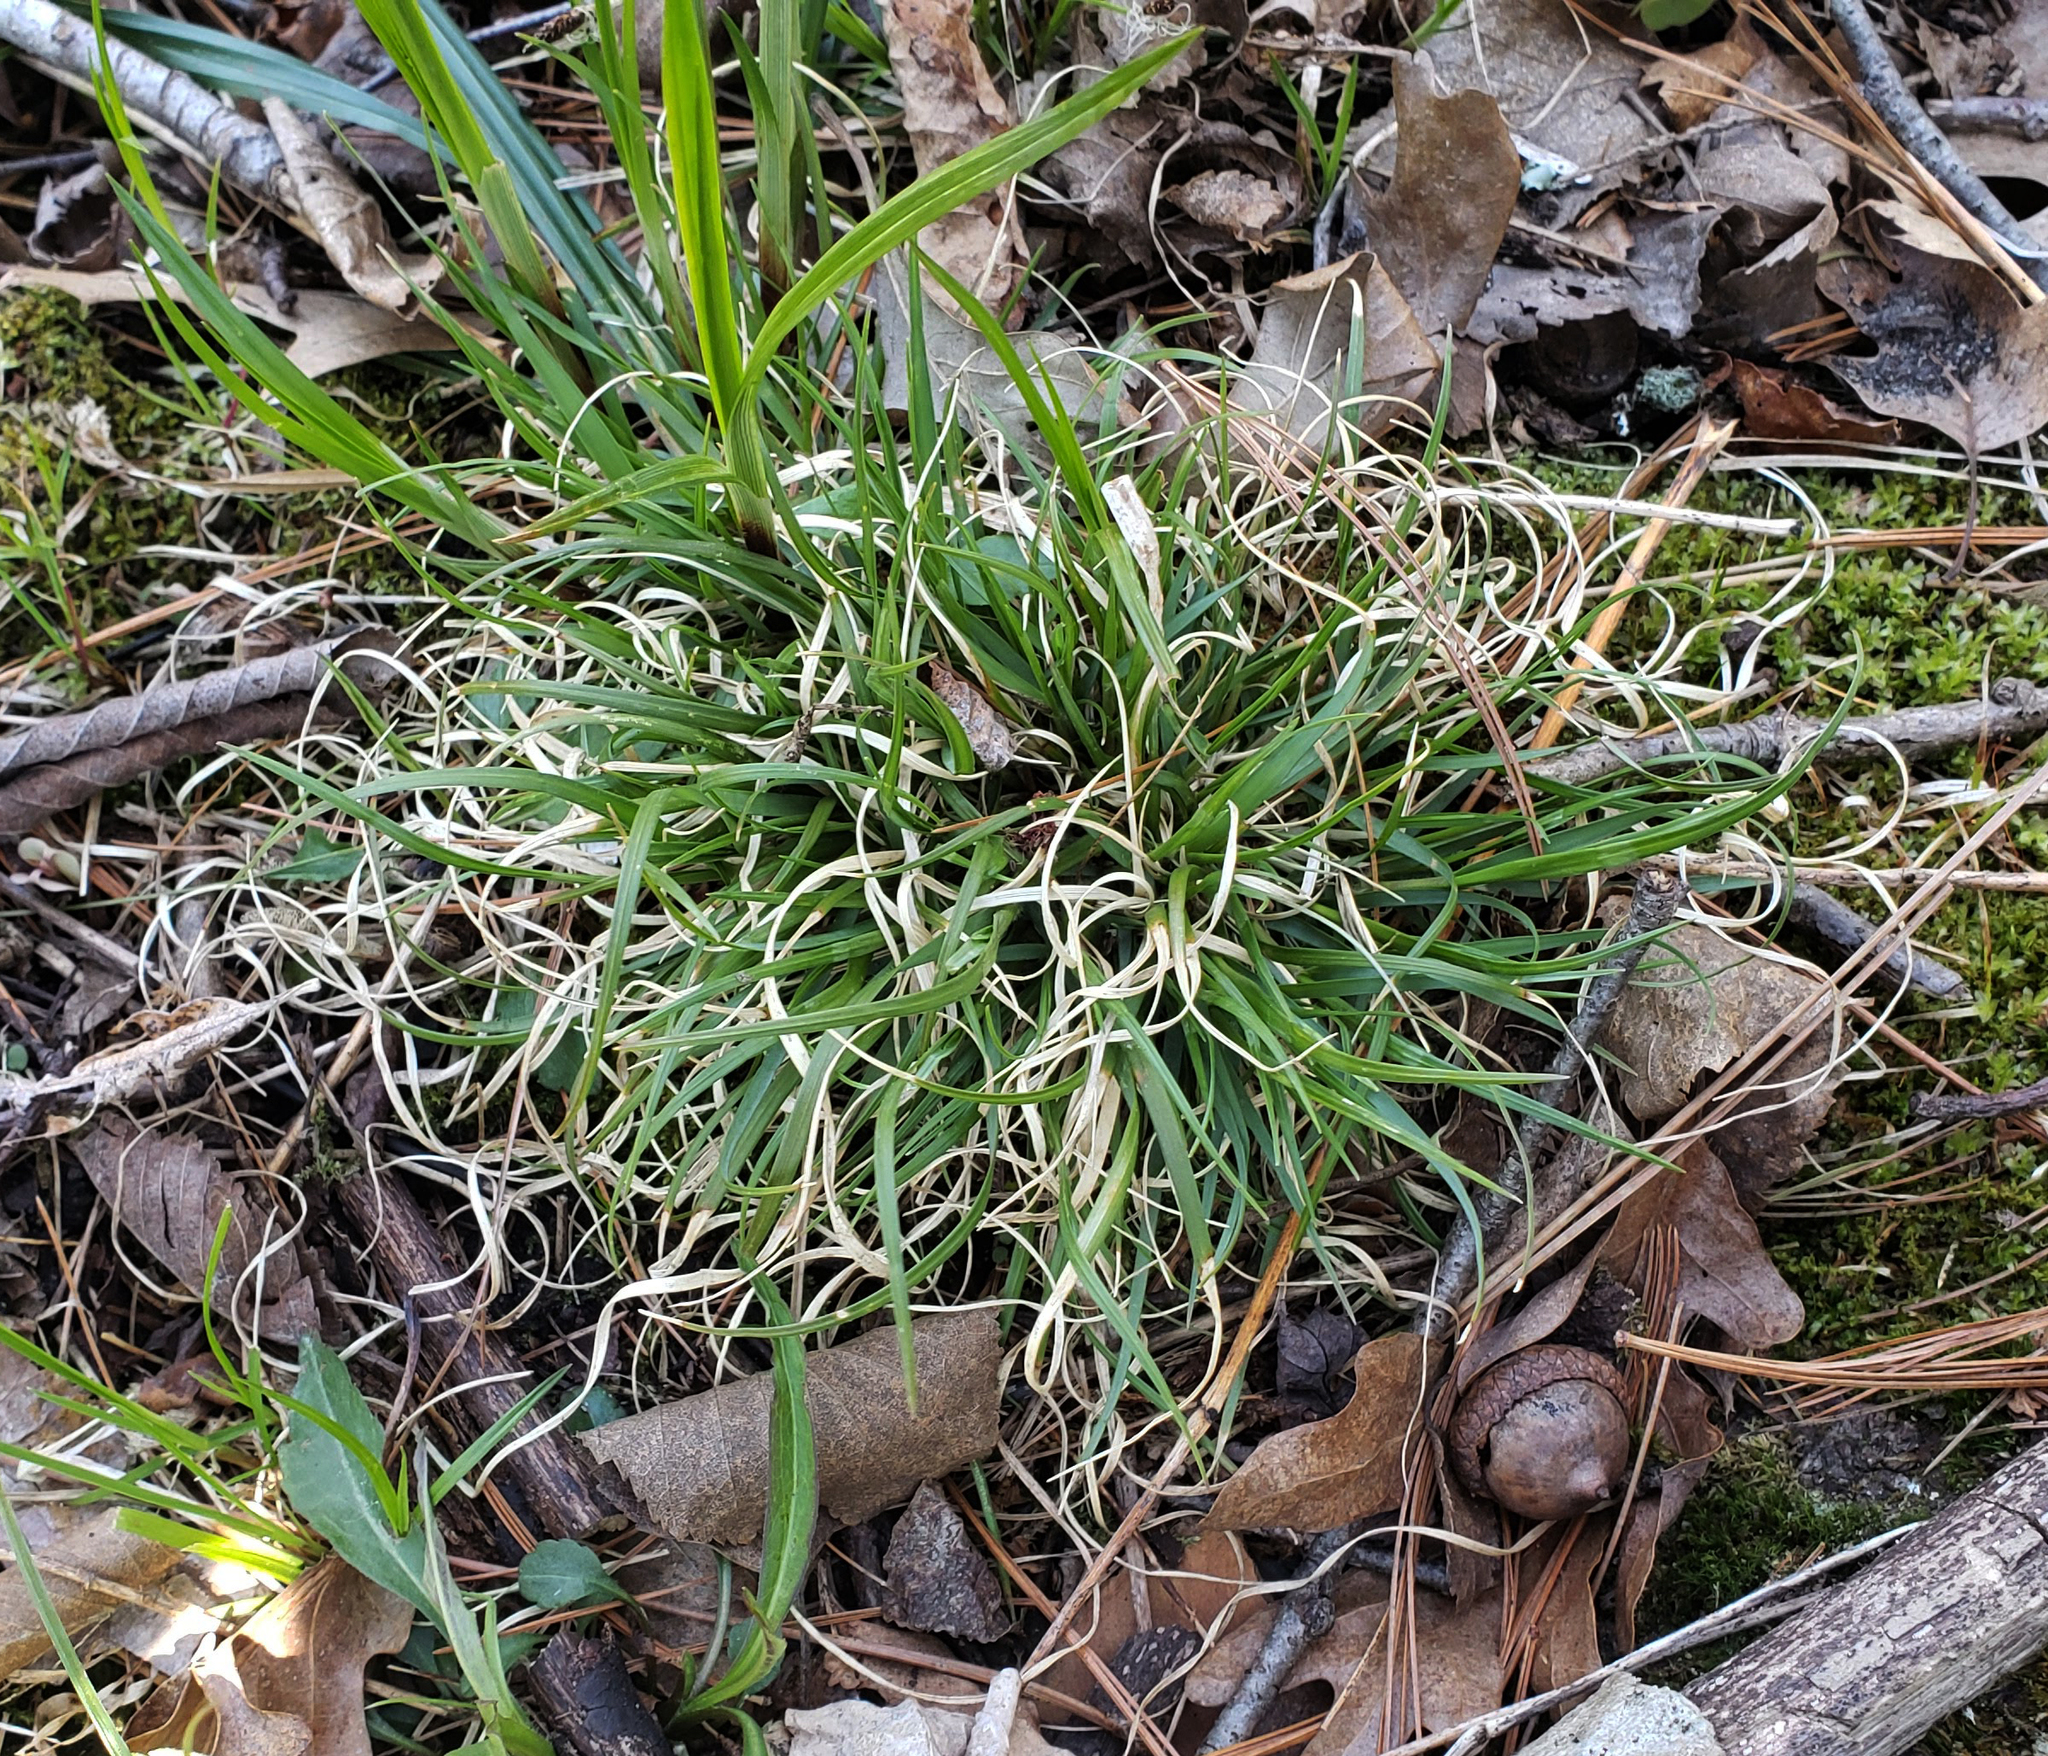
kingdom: Plantae
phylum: Tracheophyta
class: Liliopsida
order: Poales
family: Poaceae
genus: Danthonia
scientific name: Danthonia spicata
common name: Common wild oatgrass
